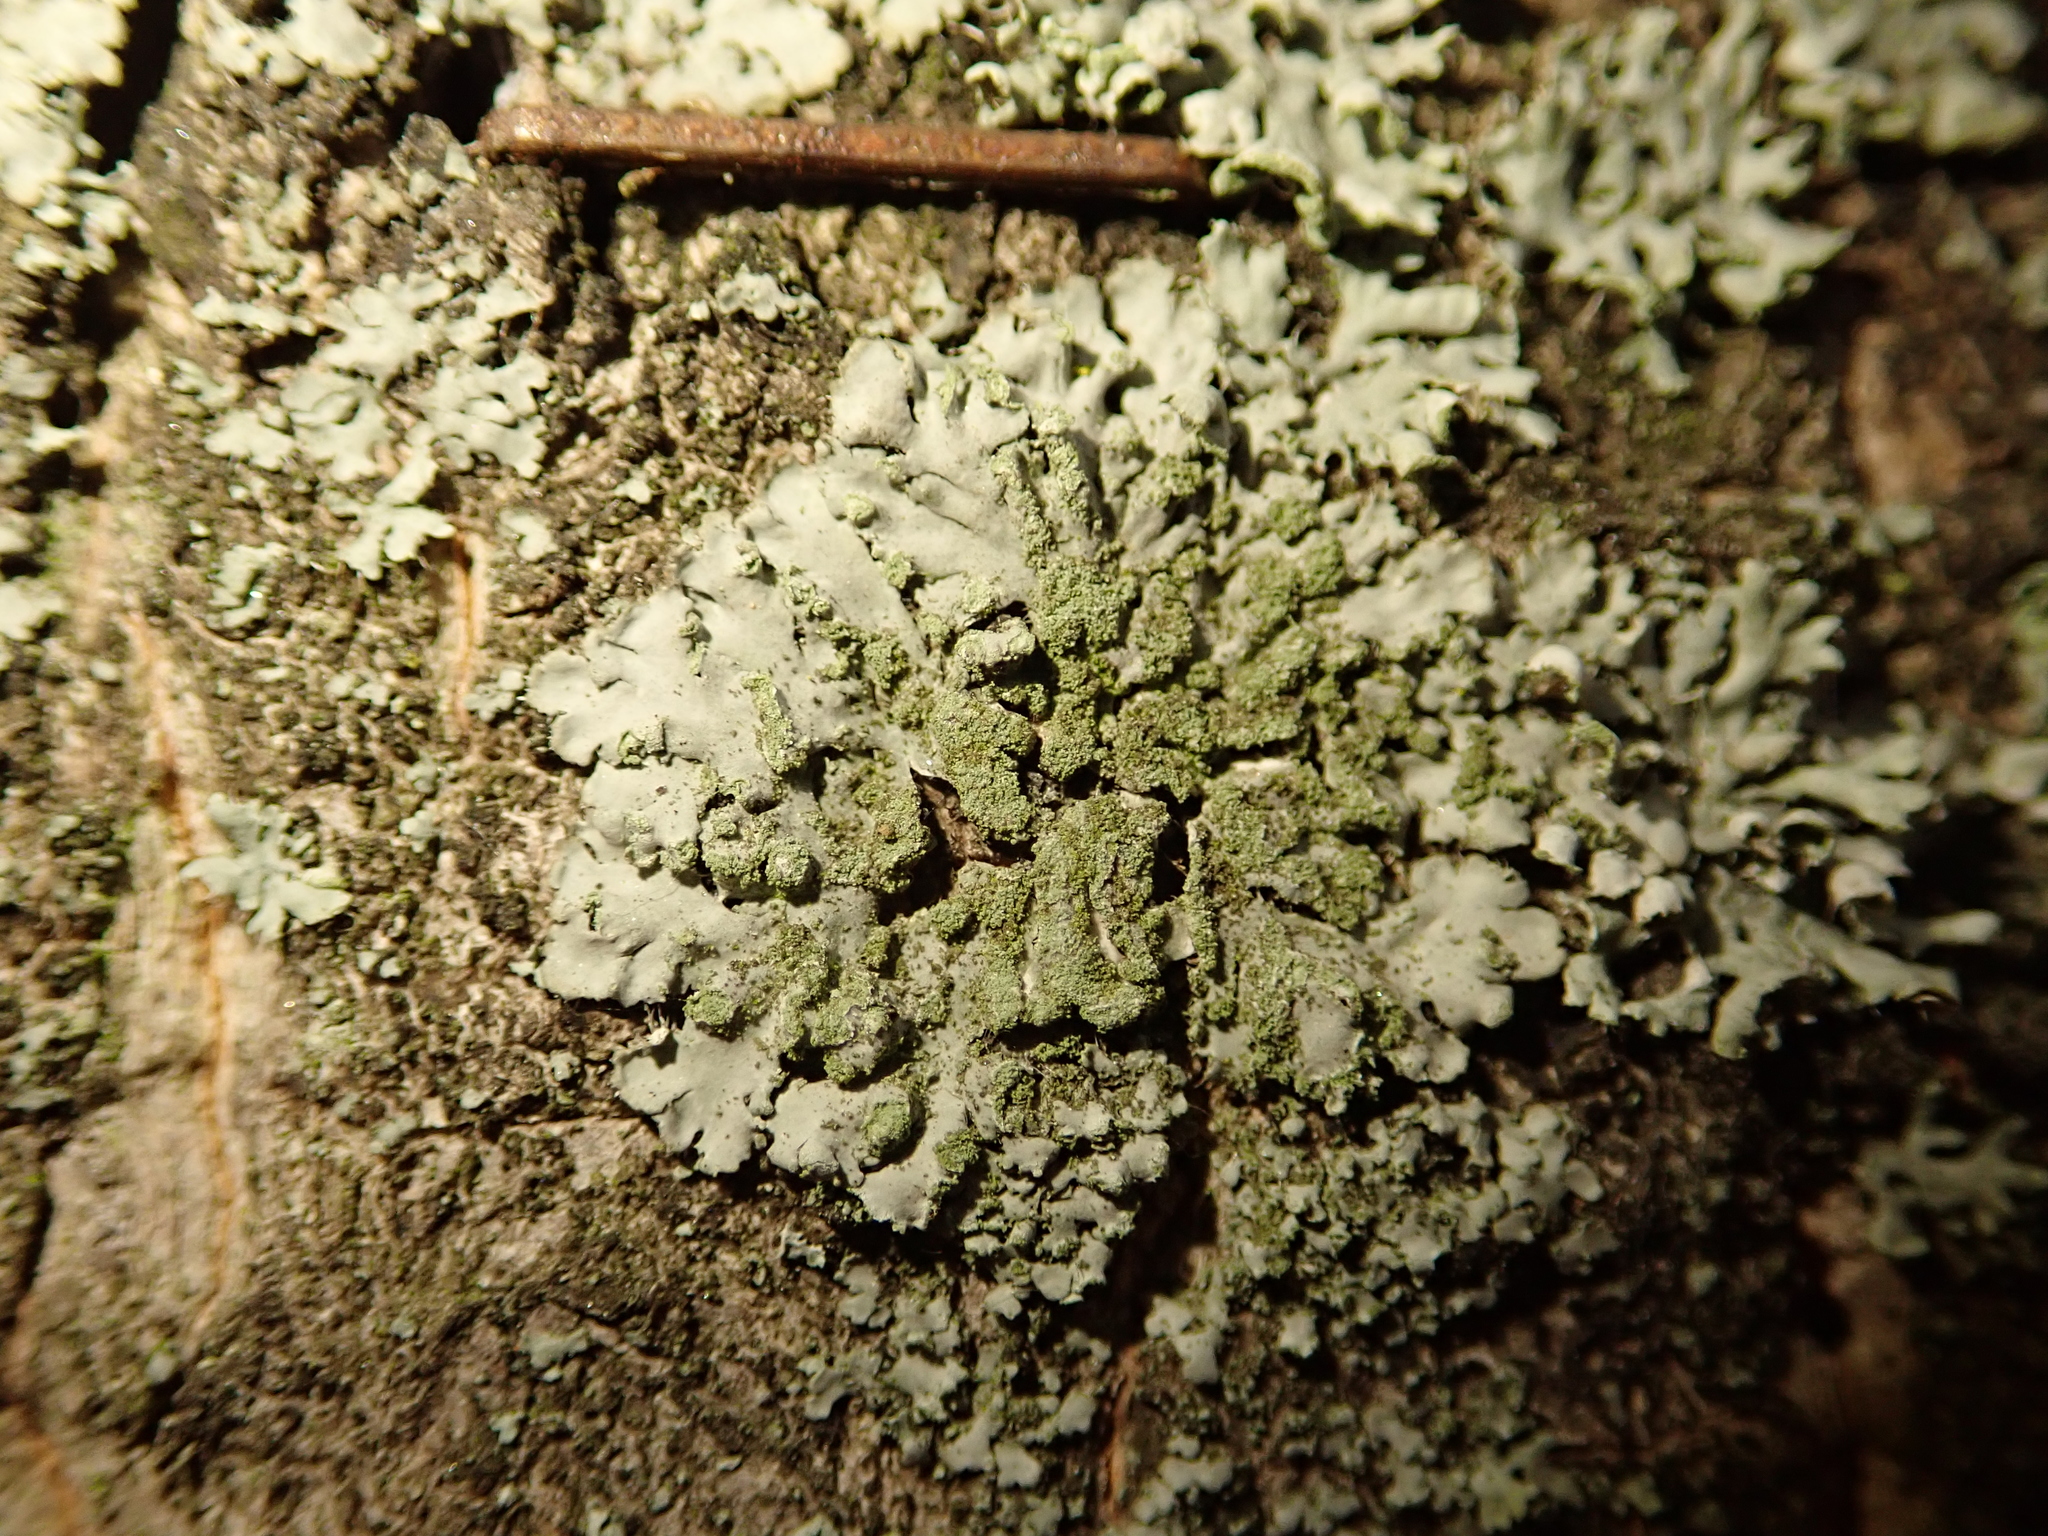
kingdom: Fungi
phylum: Ascomycota
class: Lecanoromycetes
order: Caliciales
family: Physciaceae
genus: Phaeophyscia
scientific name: Phaeophyscia orbicularis
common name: Mealy shadow lichen
